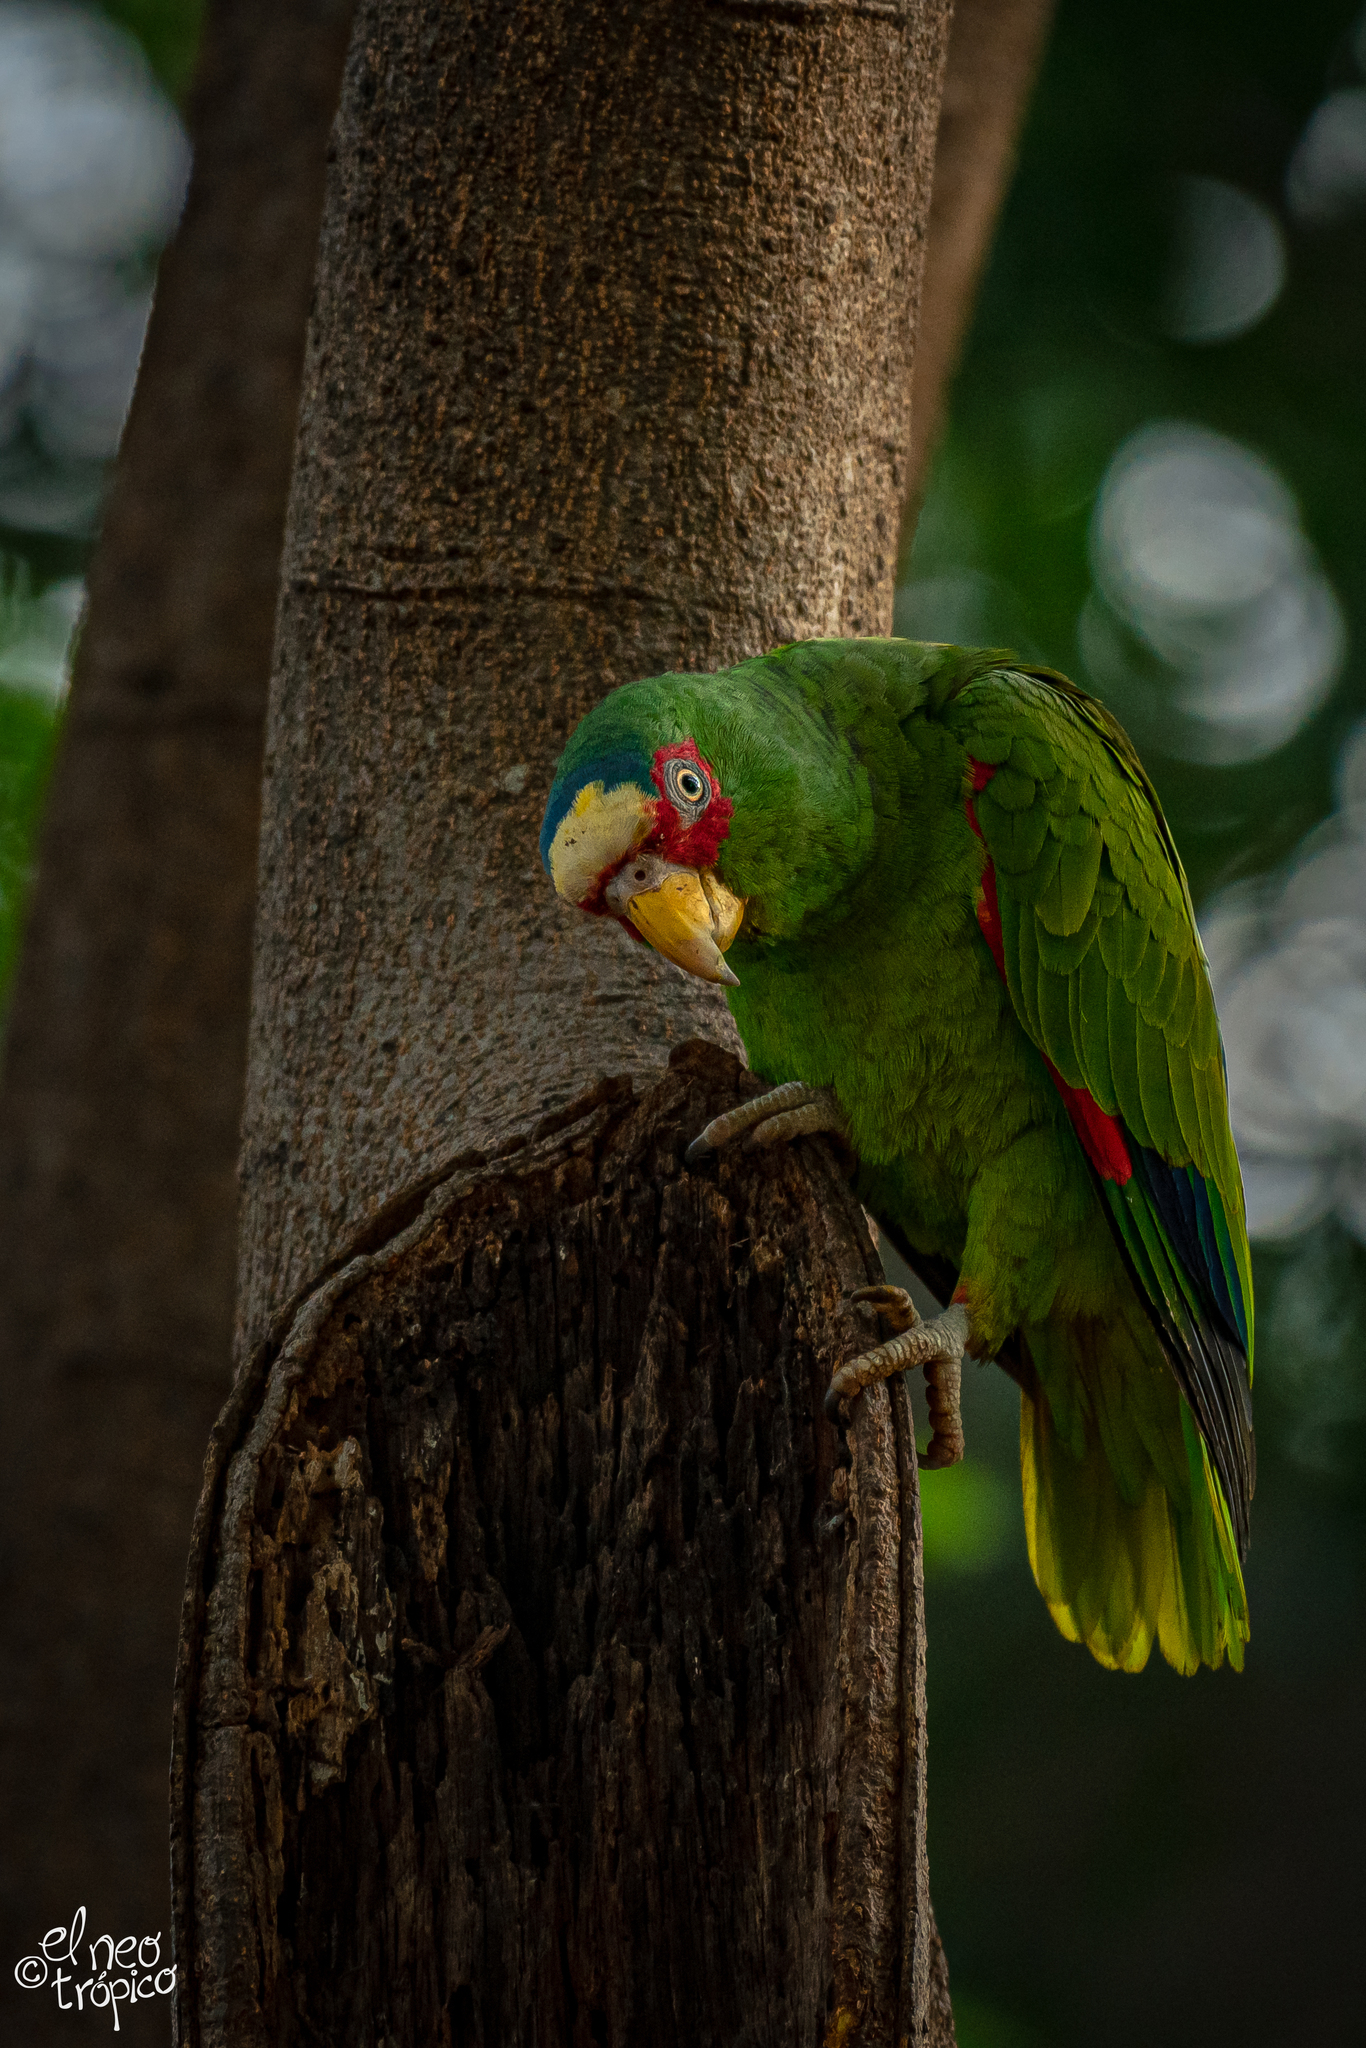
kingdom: Animalia
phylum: Chordata
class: Aves
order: Psittaciformes
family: Psittacidae
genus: Amazona
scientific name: Amazona albifrons
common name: White-fronted amazon
